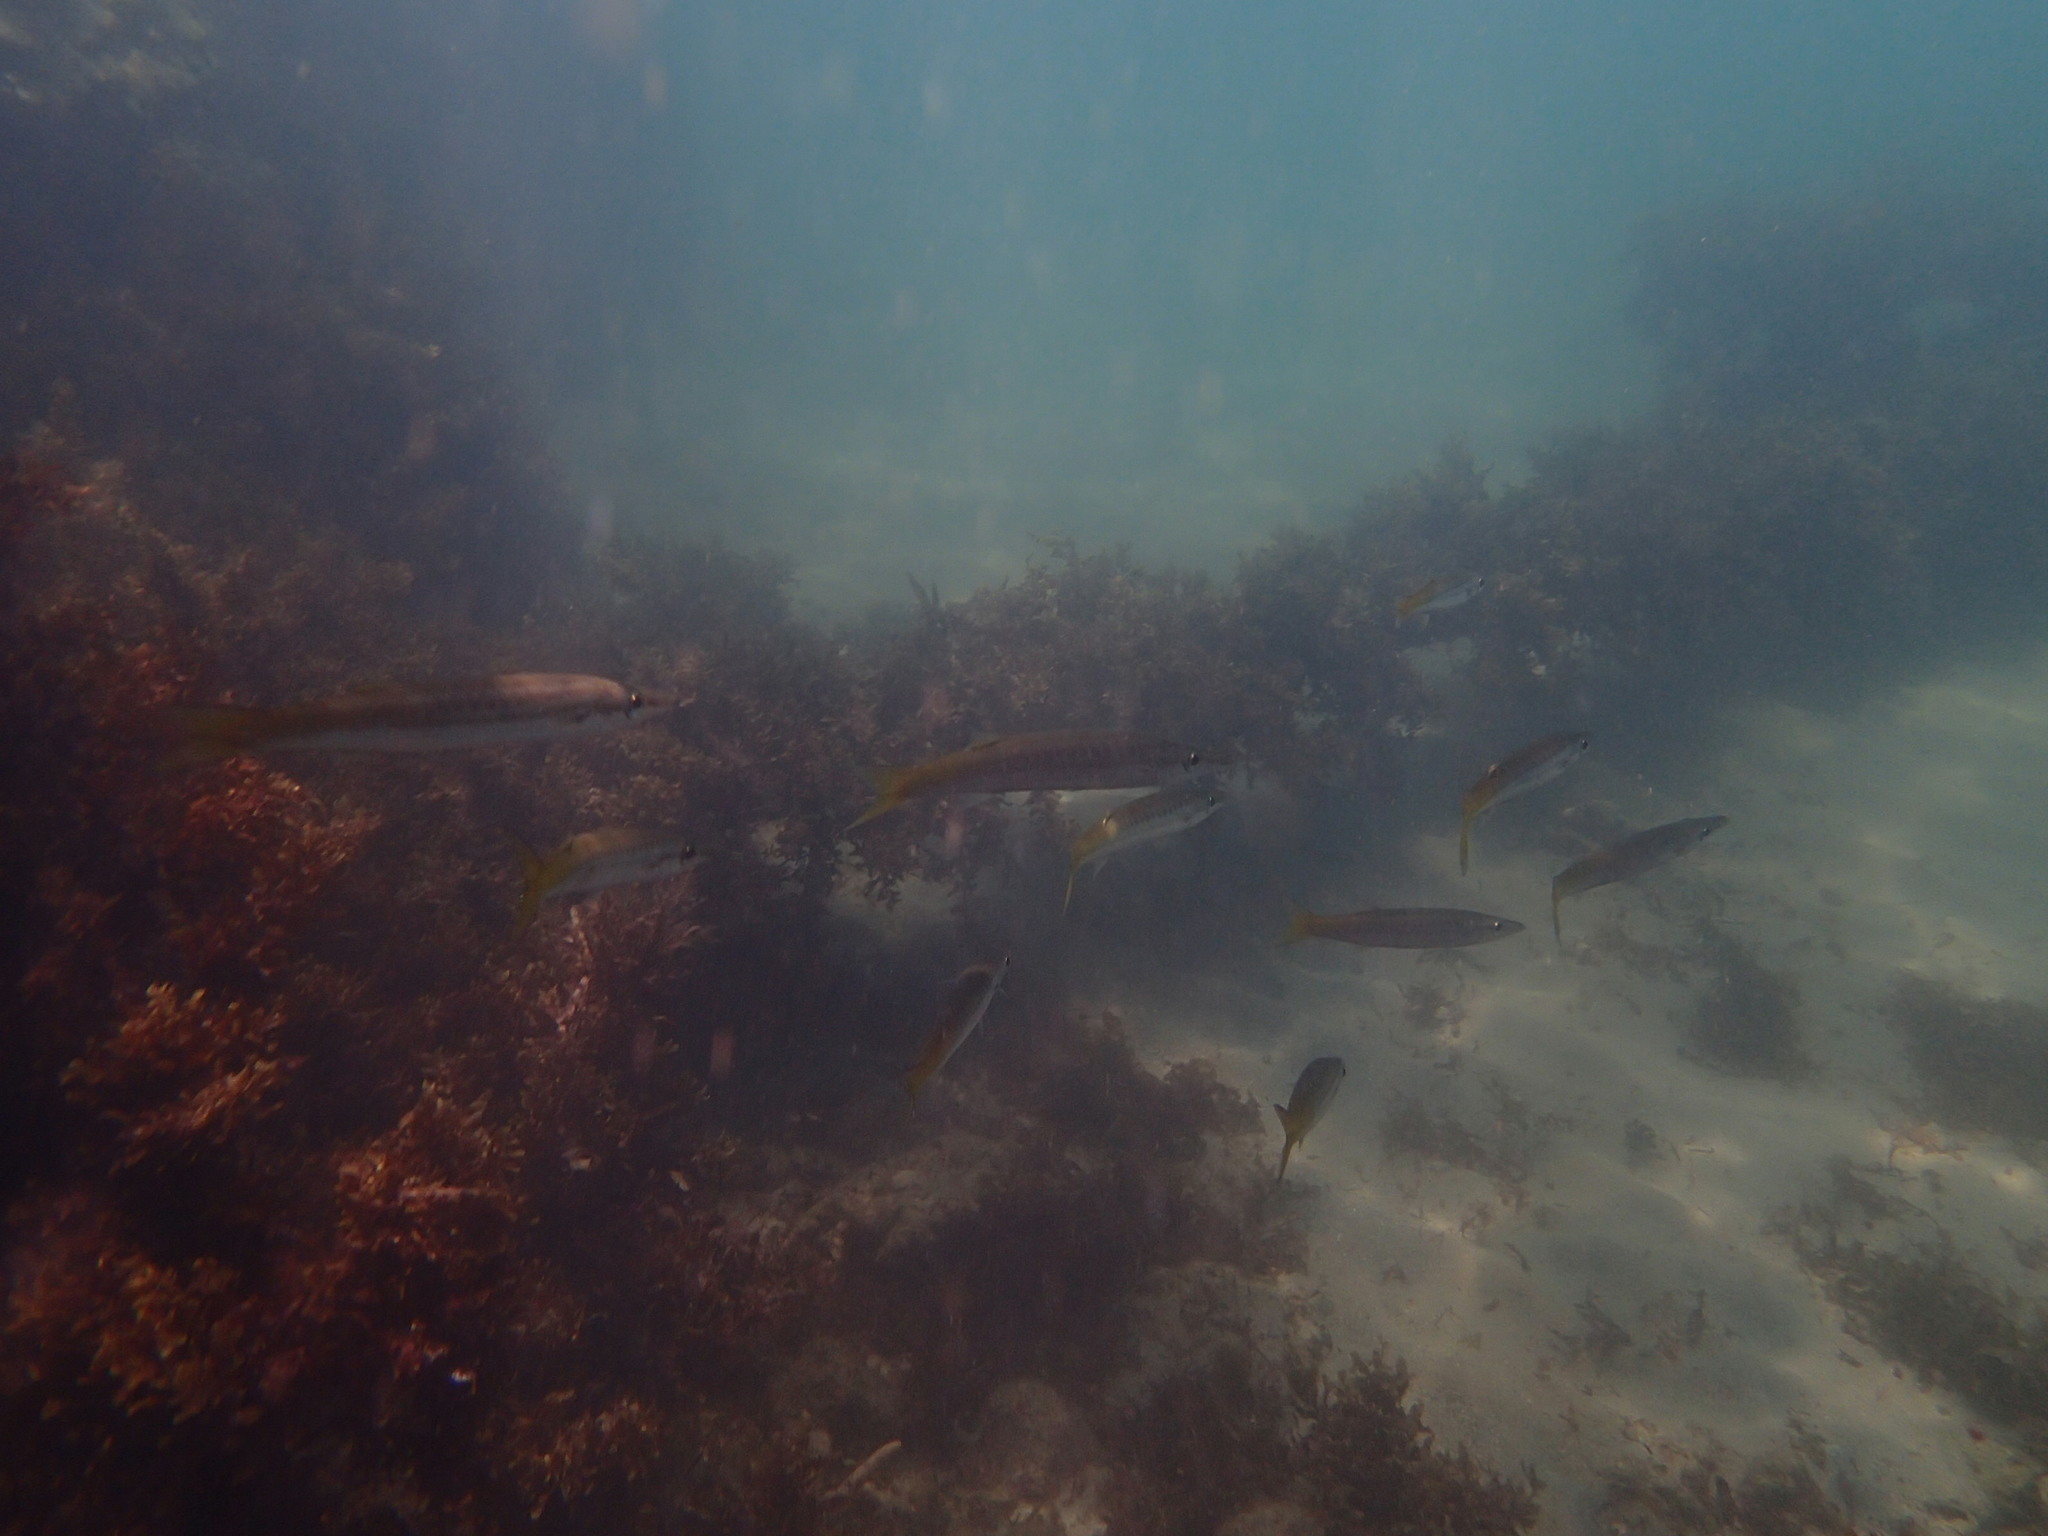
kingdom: Animalia
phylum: Chordata
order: Perciformes
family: Sphyraenidae
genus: Sphyraena
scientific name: Sphyraena flavicauda
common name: Yellowtail barracuda
